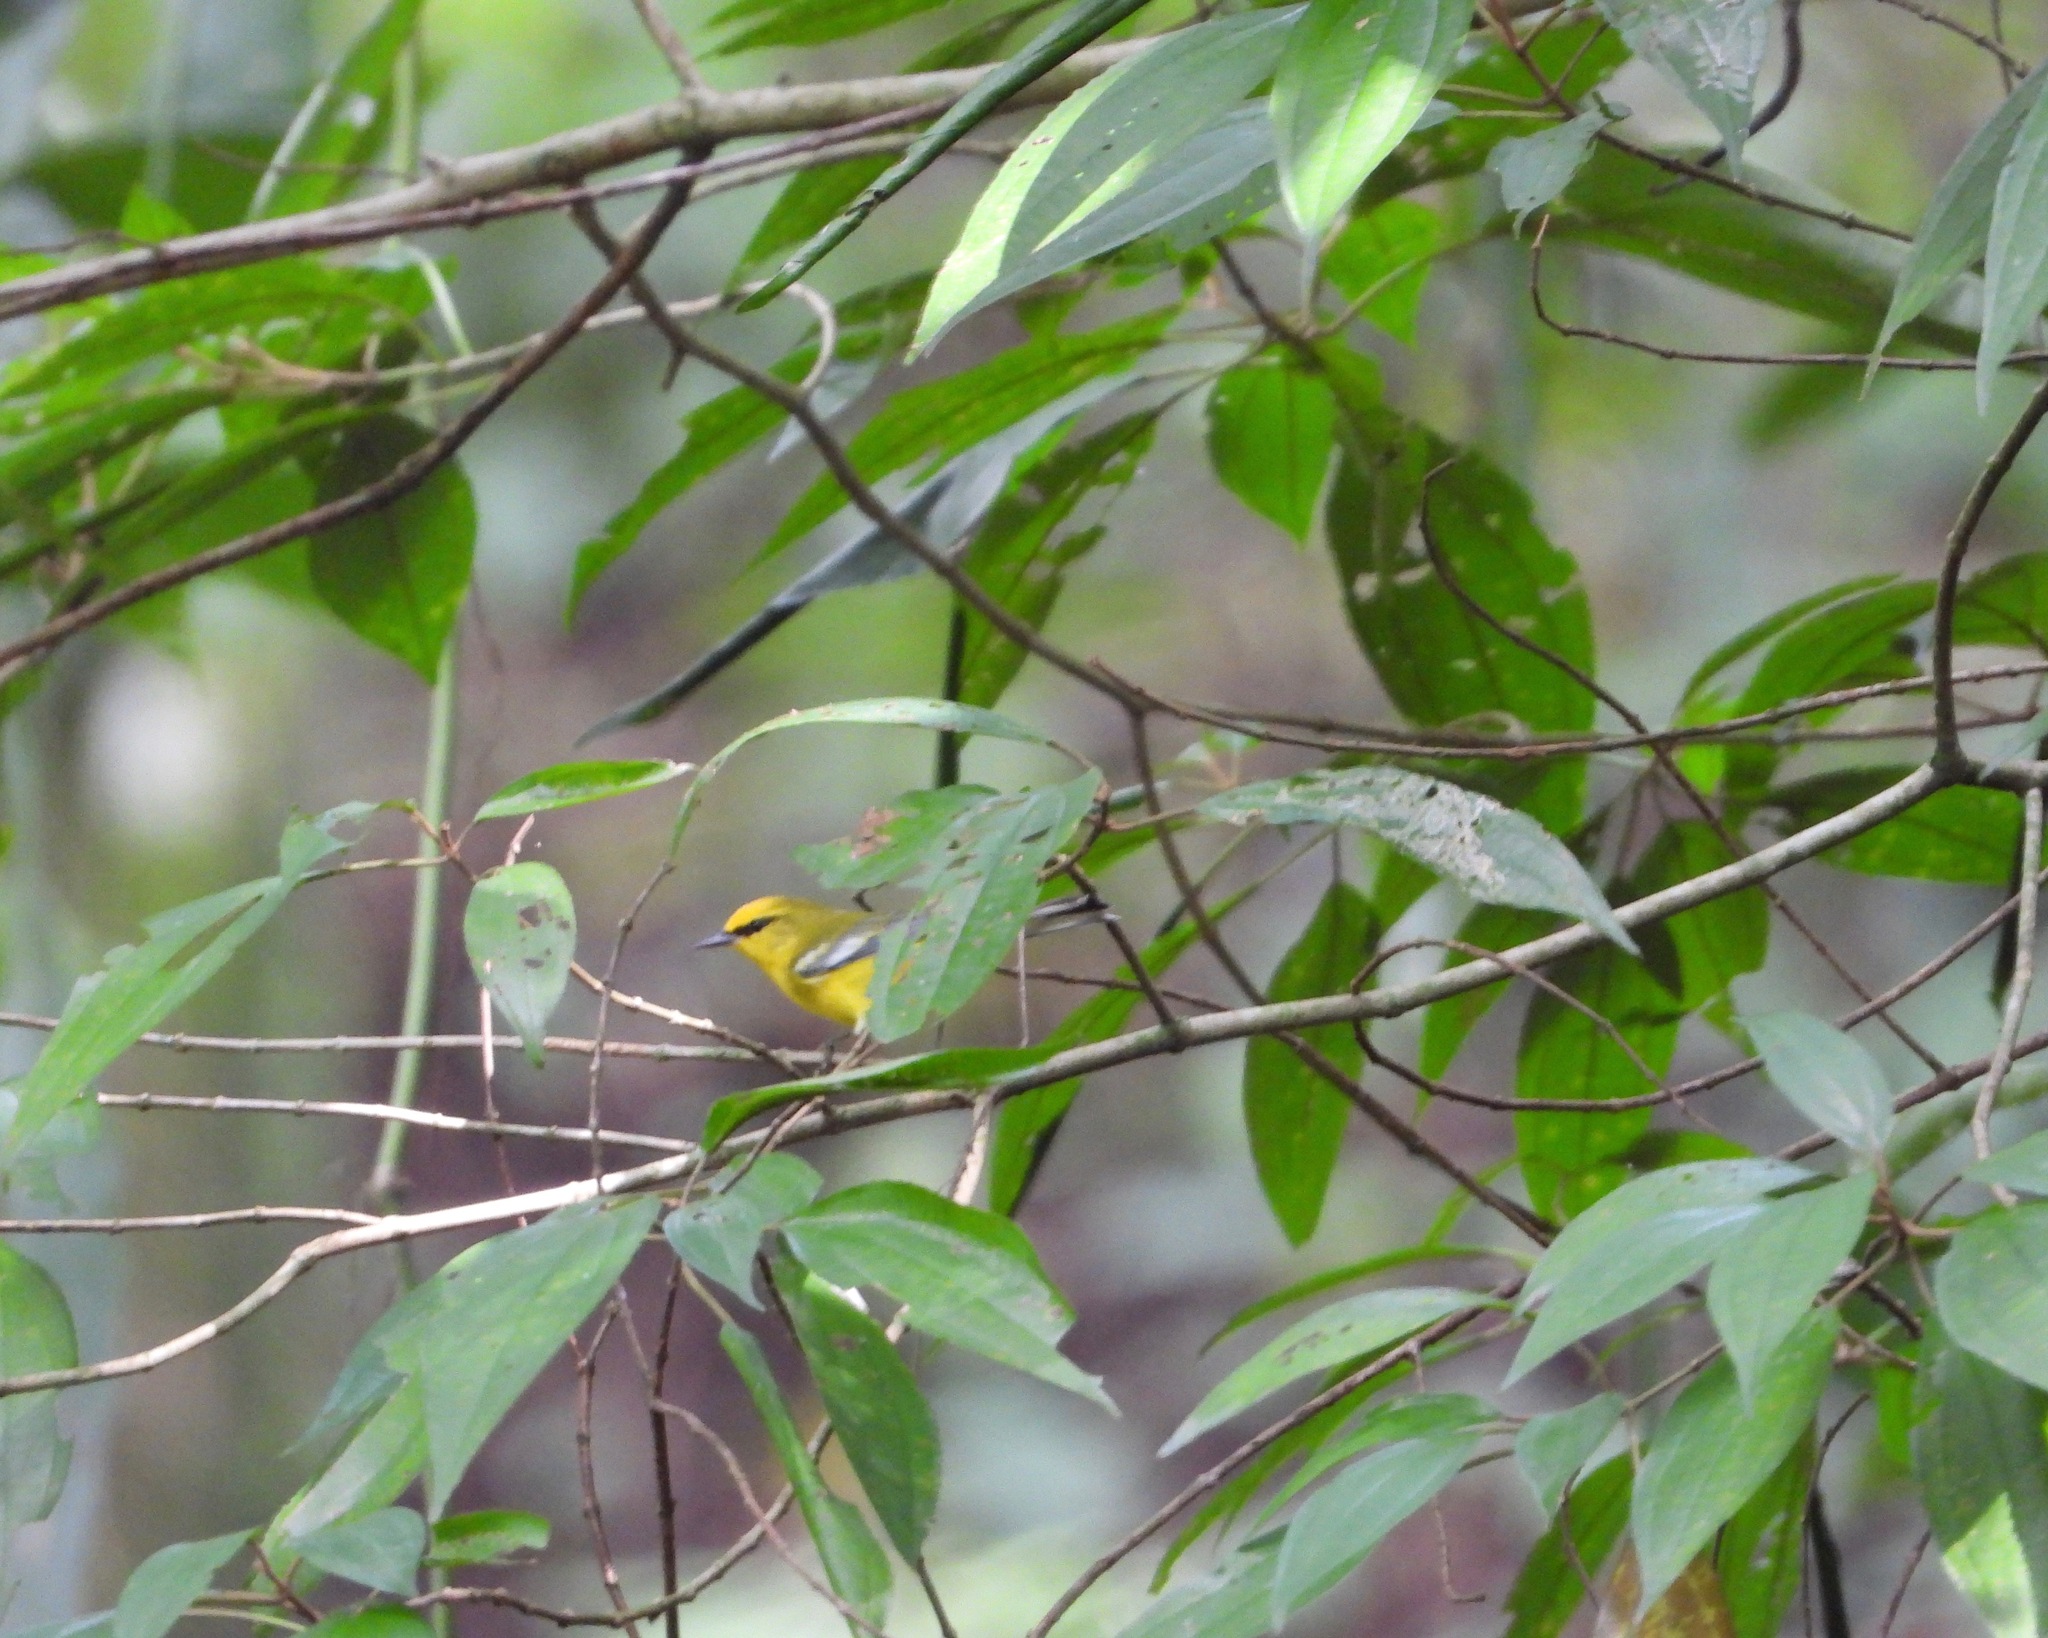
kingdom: Animalia
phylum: Chordata
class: Aves
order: Passeriformes
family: Parulidae
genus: Vermivora
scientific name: Vermivora cyanoptera
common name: Blue-winged warbler
